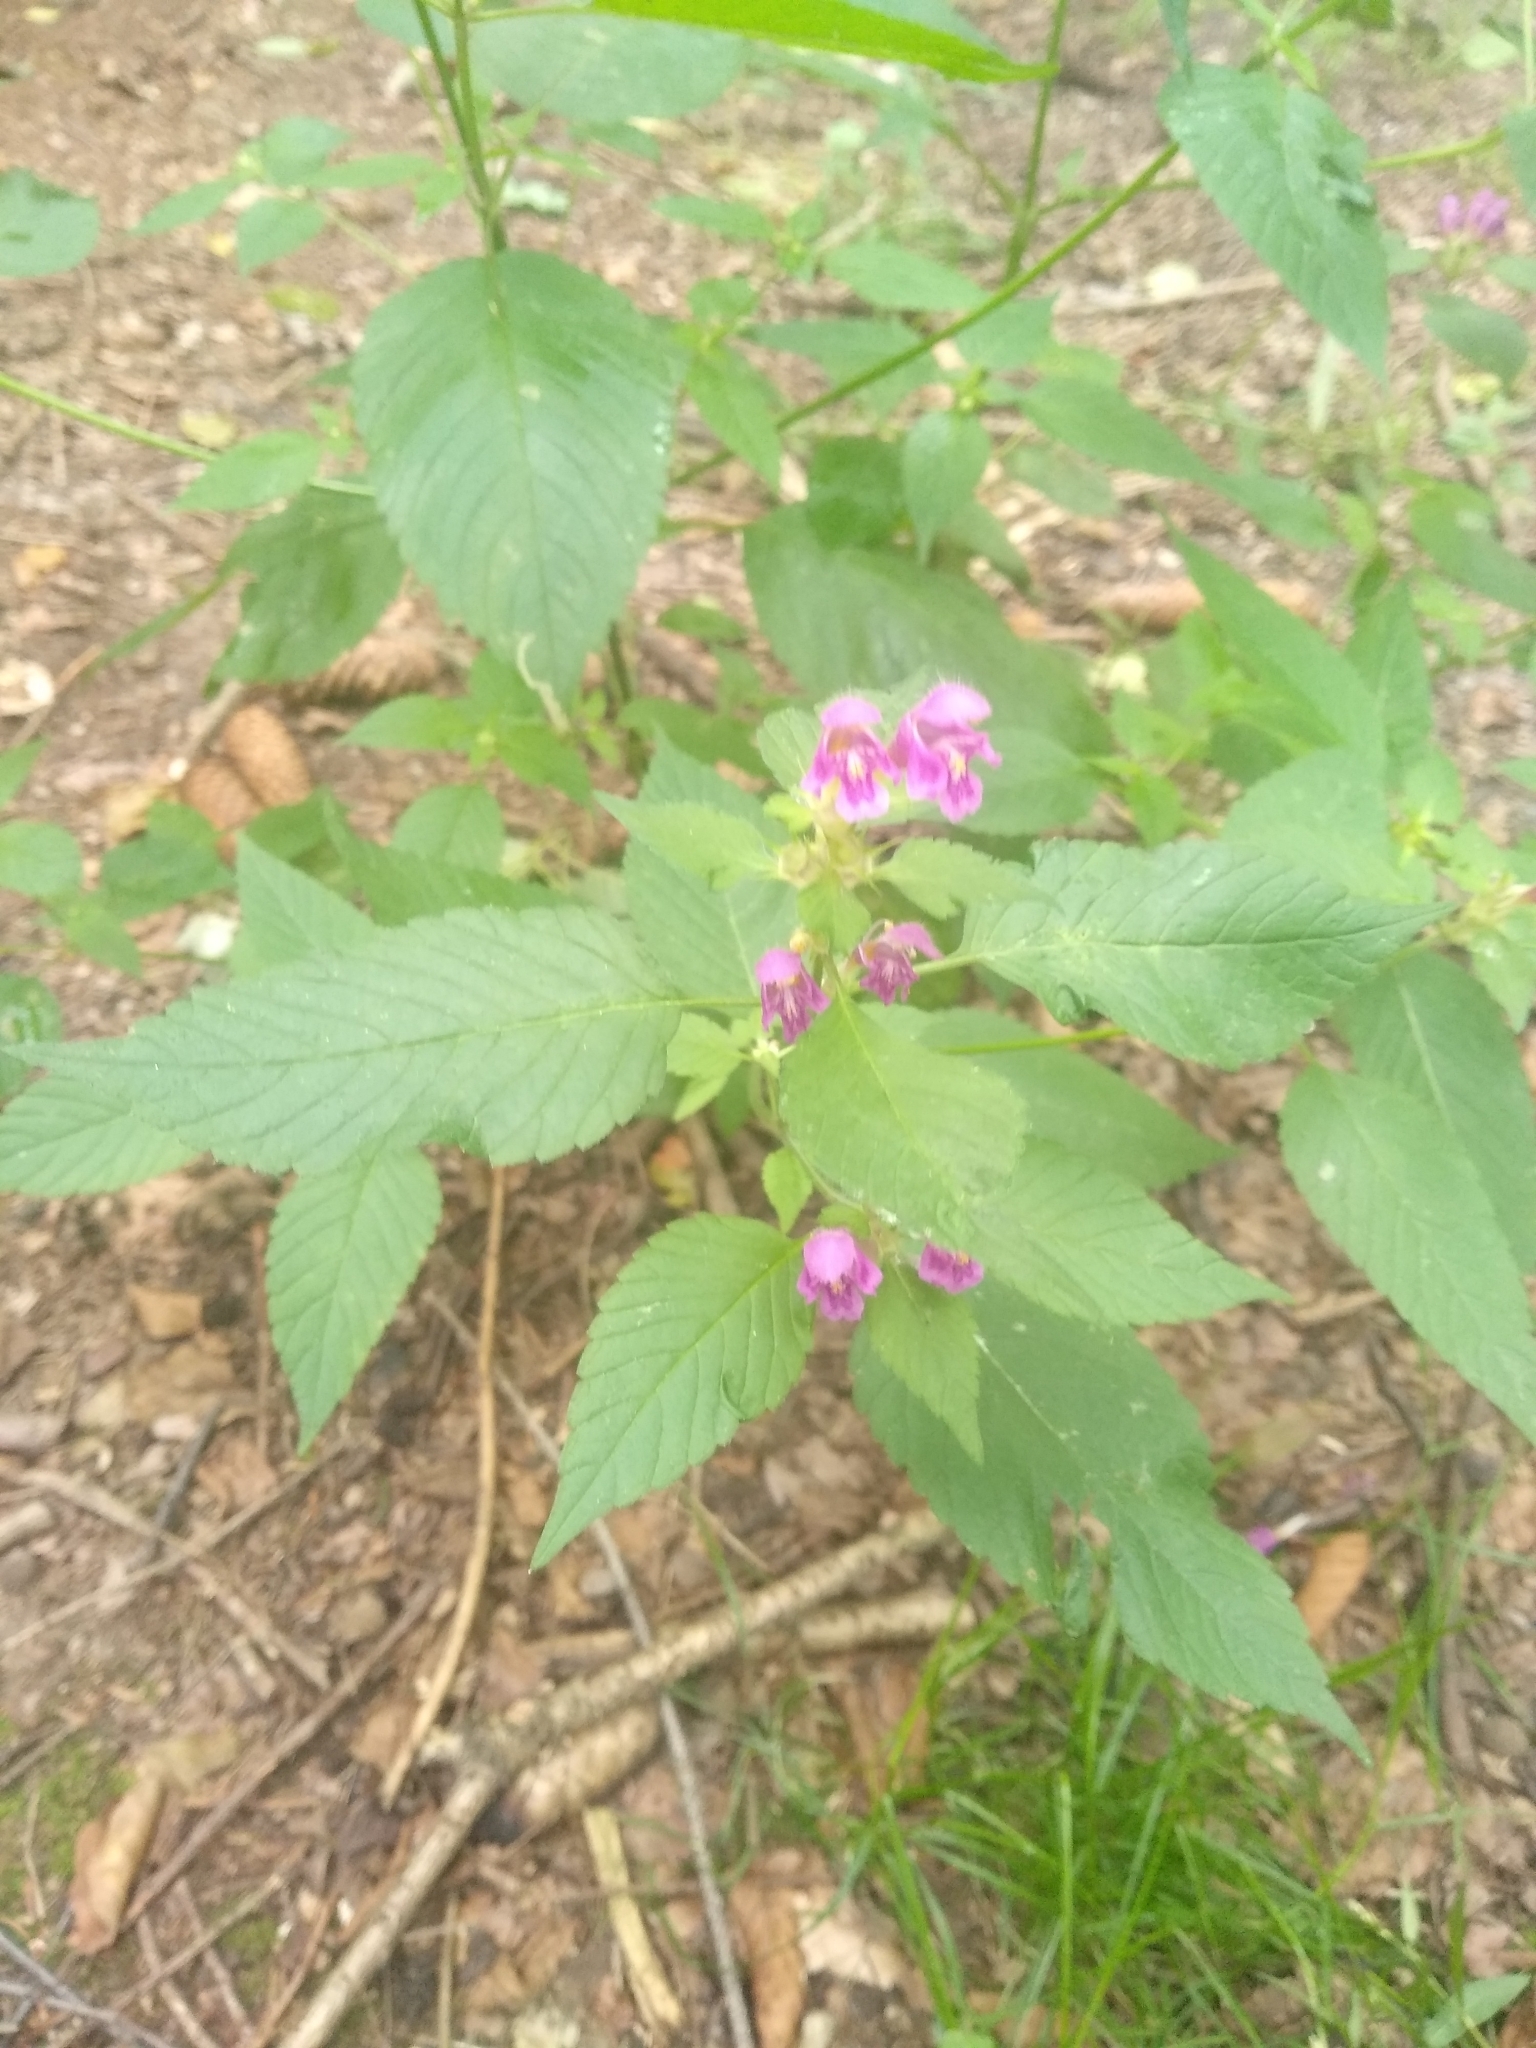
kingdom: Plantae
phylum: Tracheophyta
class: Magnoliopsida
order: Lamiales
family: Lamiaceae
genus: Galeopsis
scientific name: Galeopsis pubescens
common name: Downy hemp-nettle
